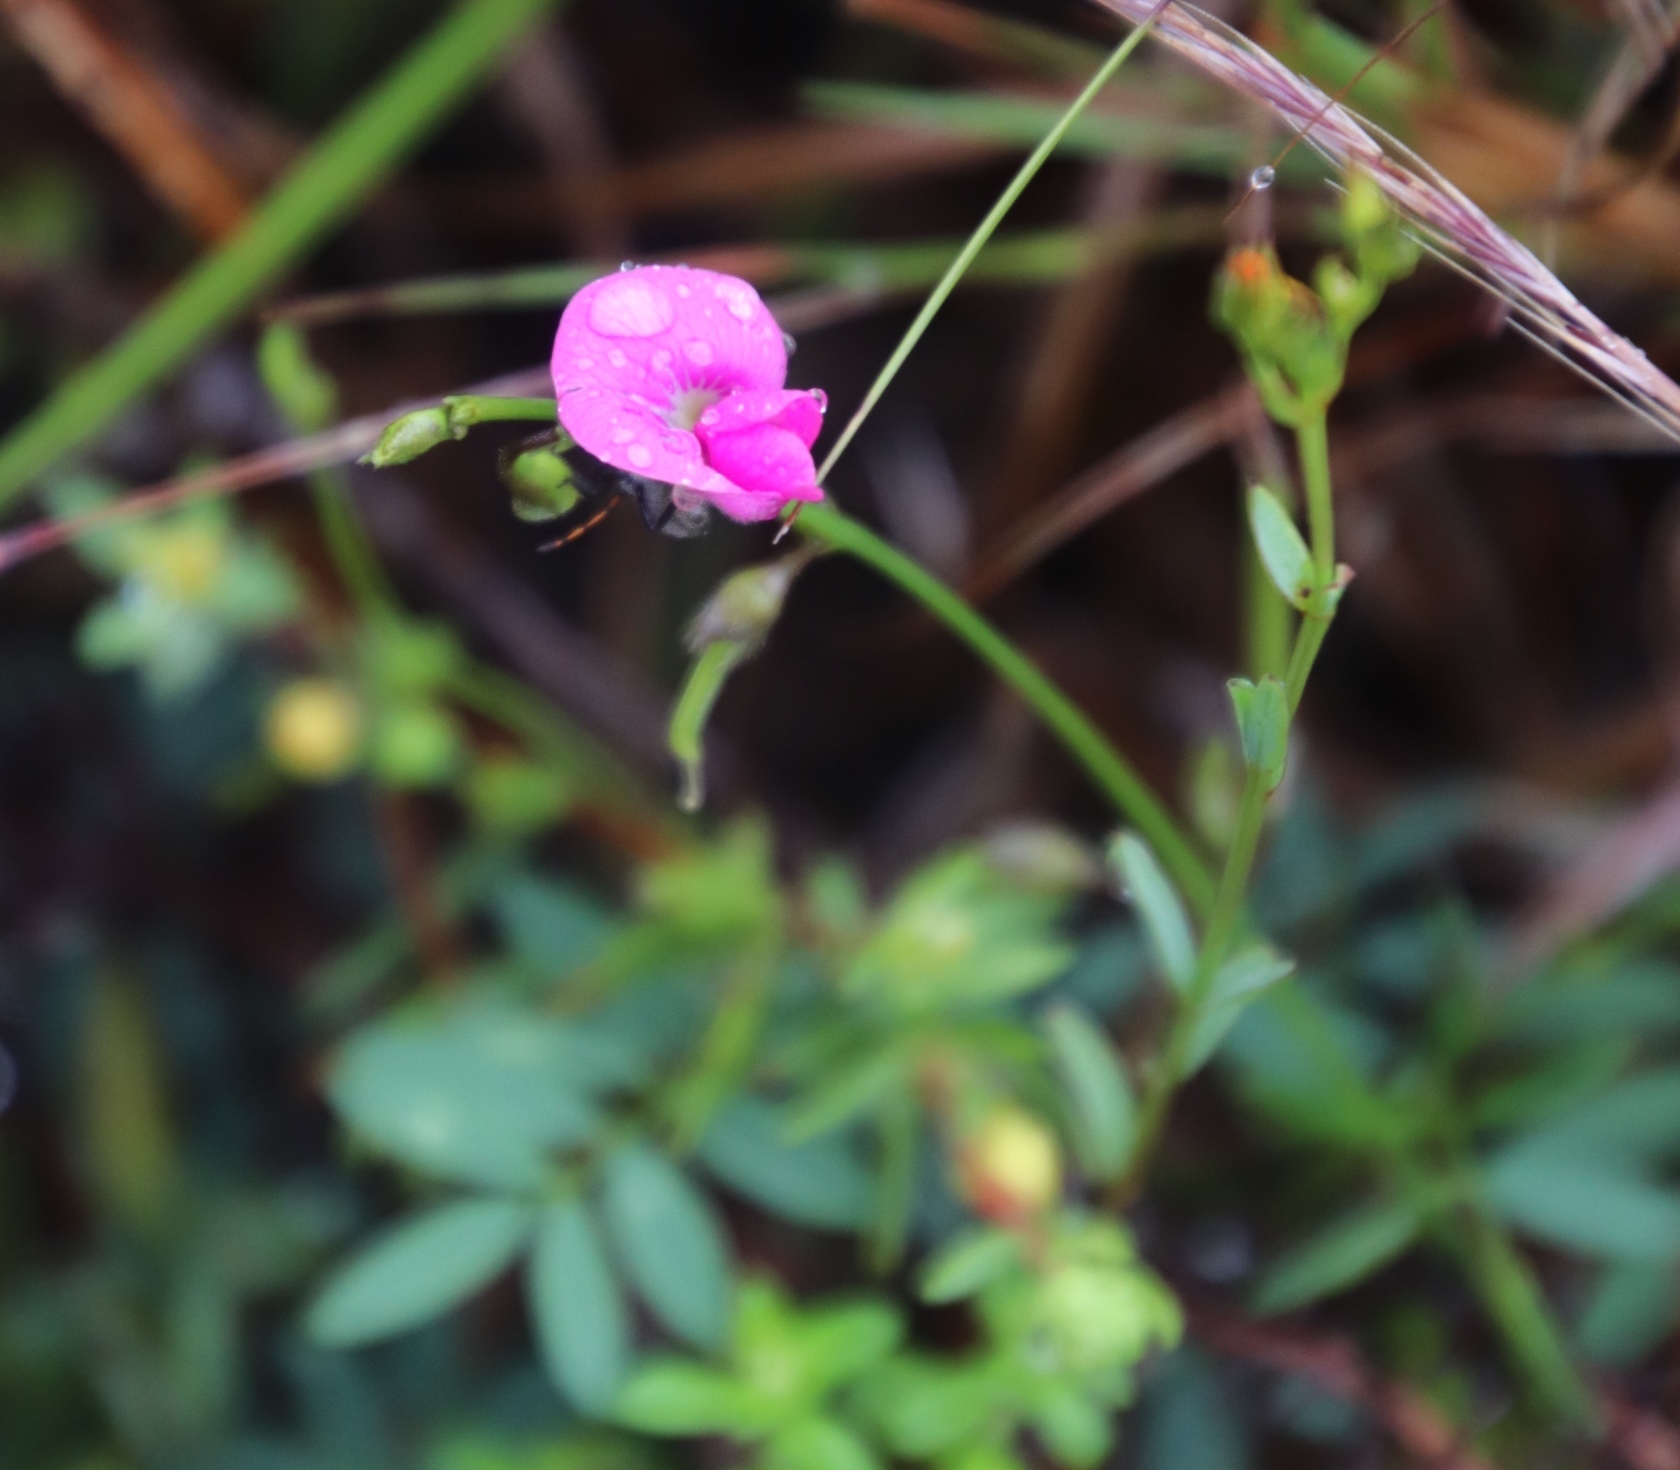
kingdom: Plantae
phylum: Tracheophyta
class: Magnoliopsida
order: Fabales
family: Fabaceae
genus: Tephrosia
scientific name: Tephrosia capensis
